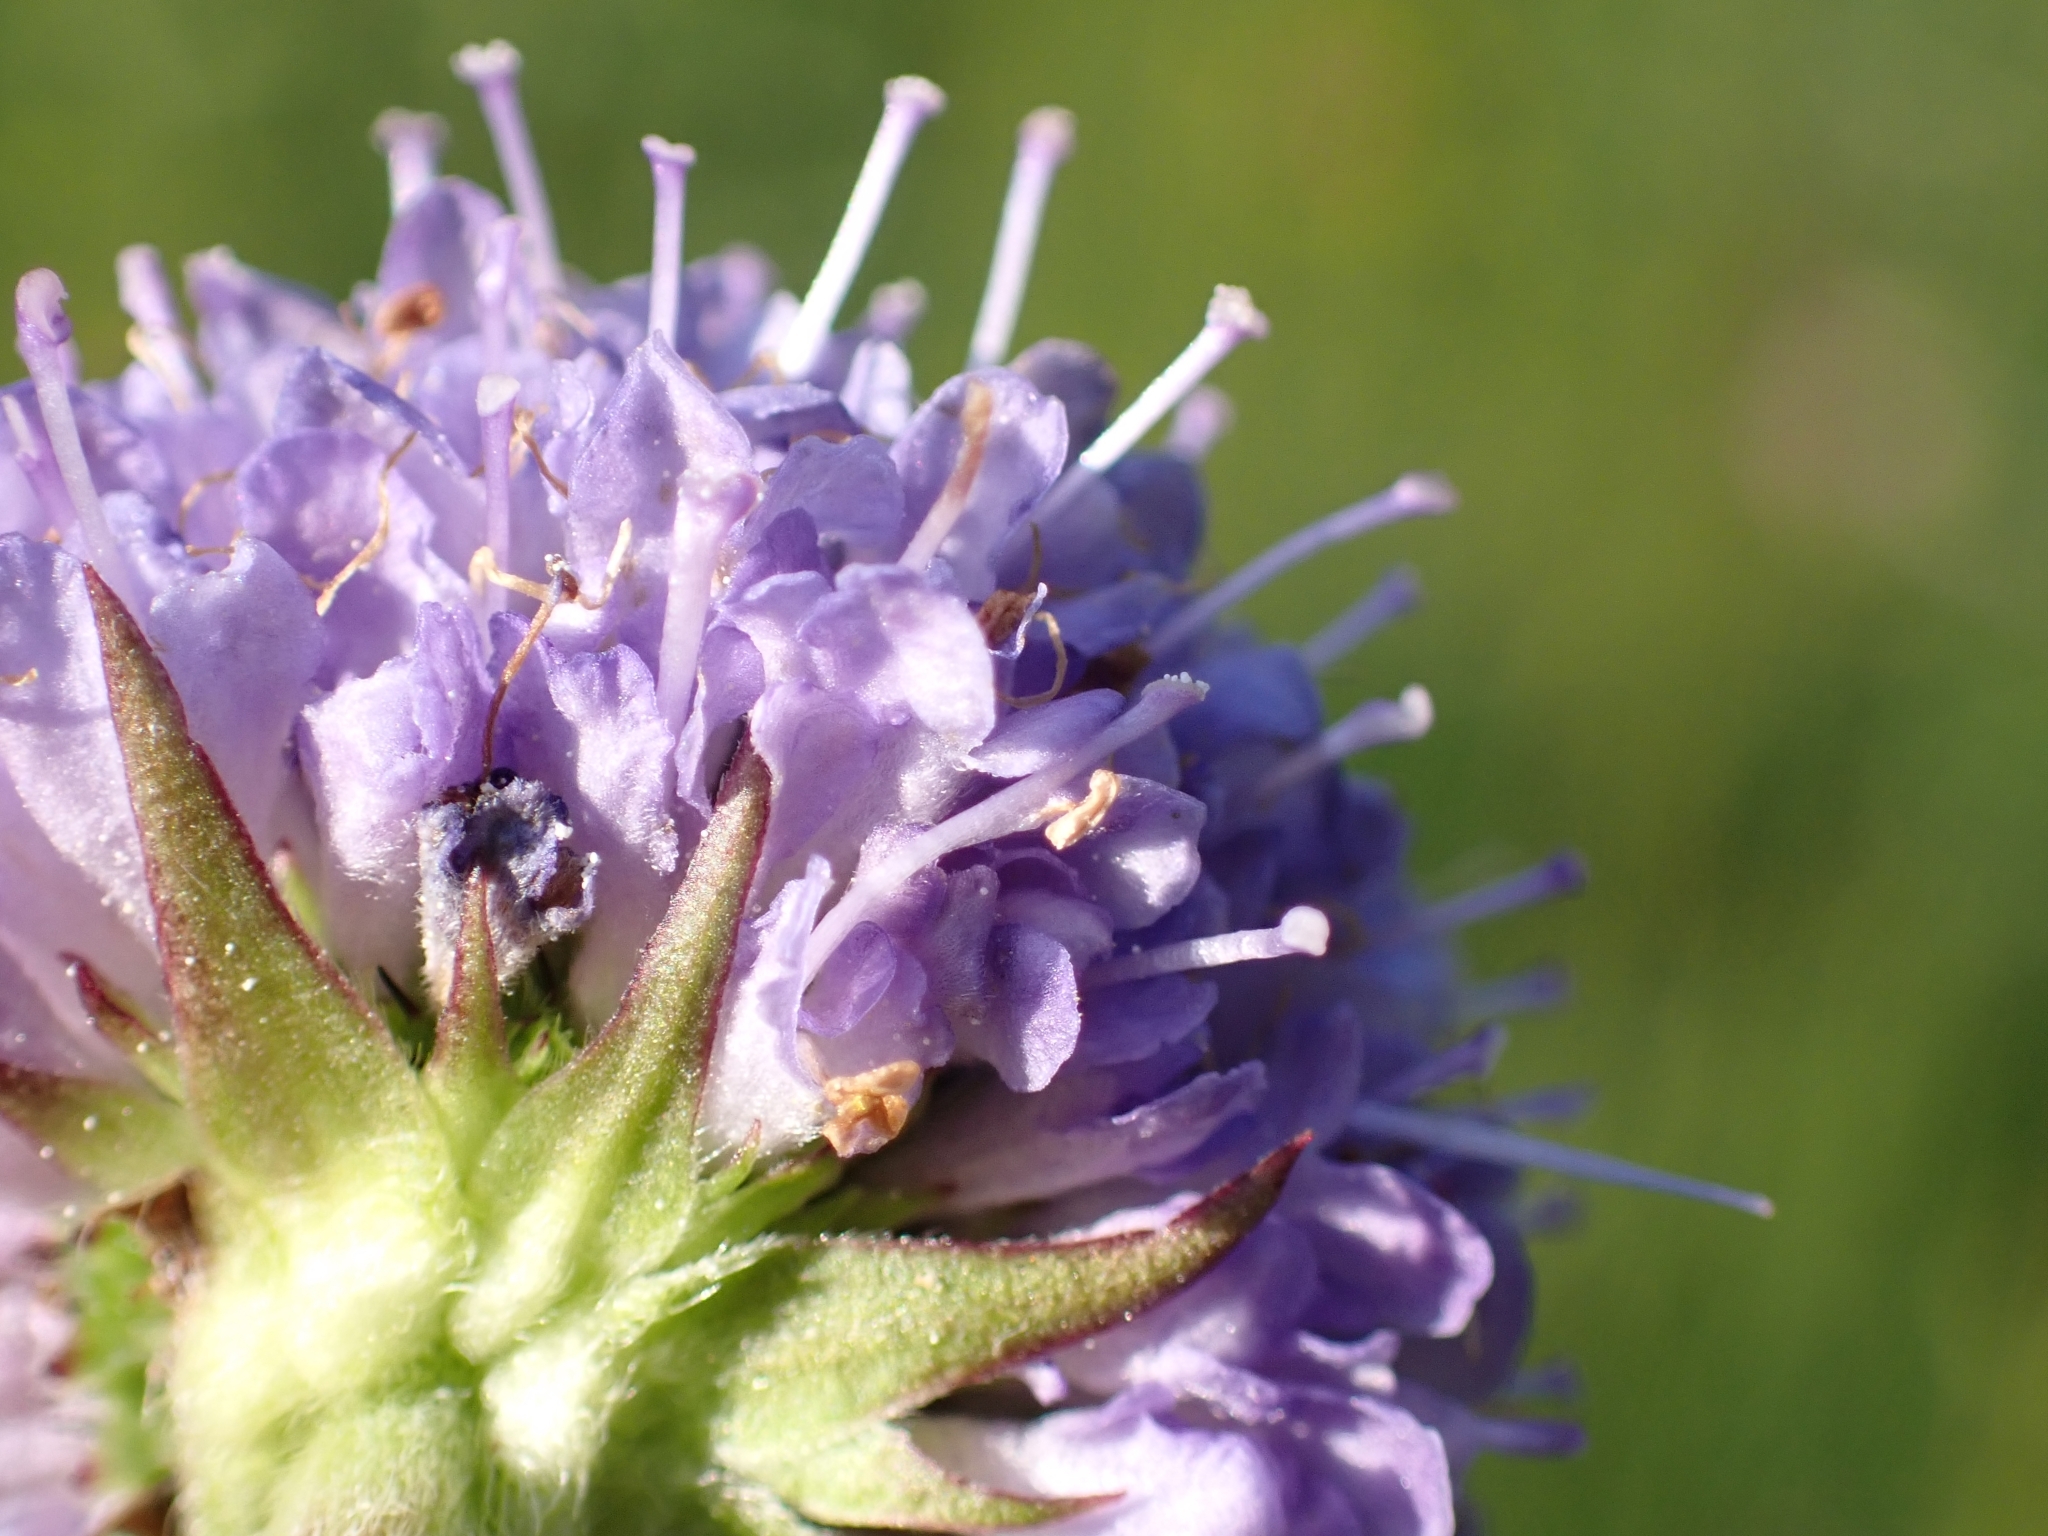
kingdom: Plantae
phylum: Tracheophyta
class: Magnoliopsida
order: Dipsacales
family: Caprifoliaceae
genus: Succisa
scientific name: Succisa pratensis
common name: Devil's-bit
